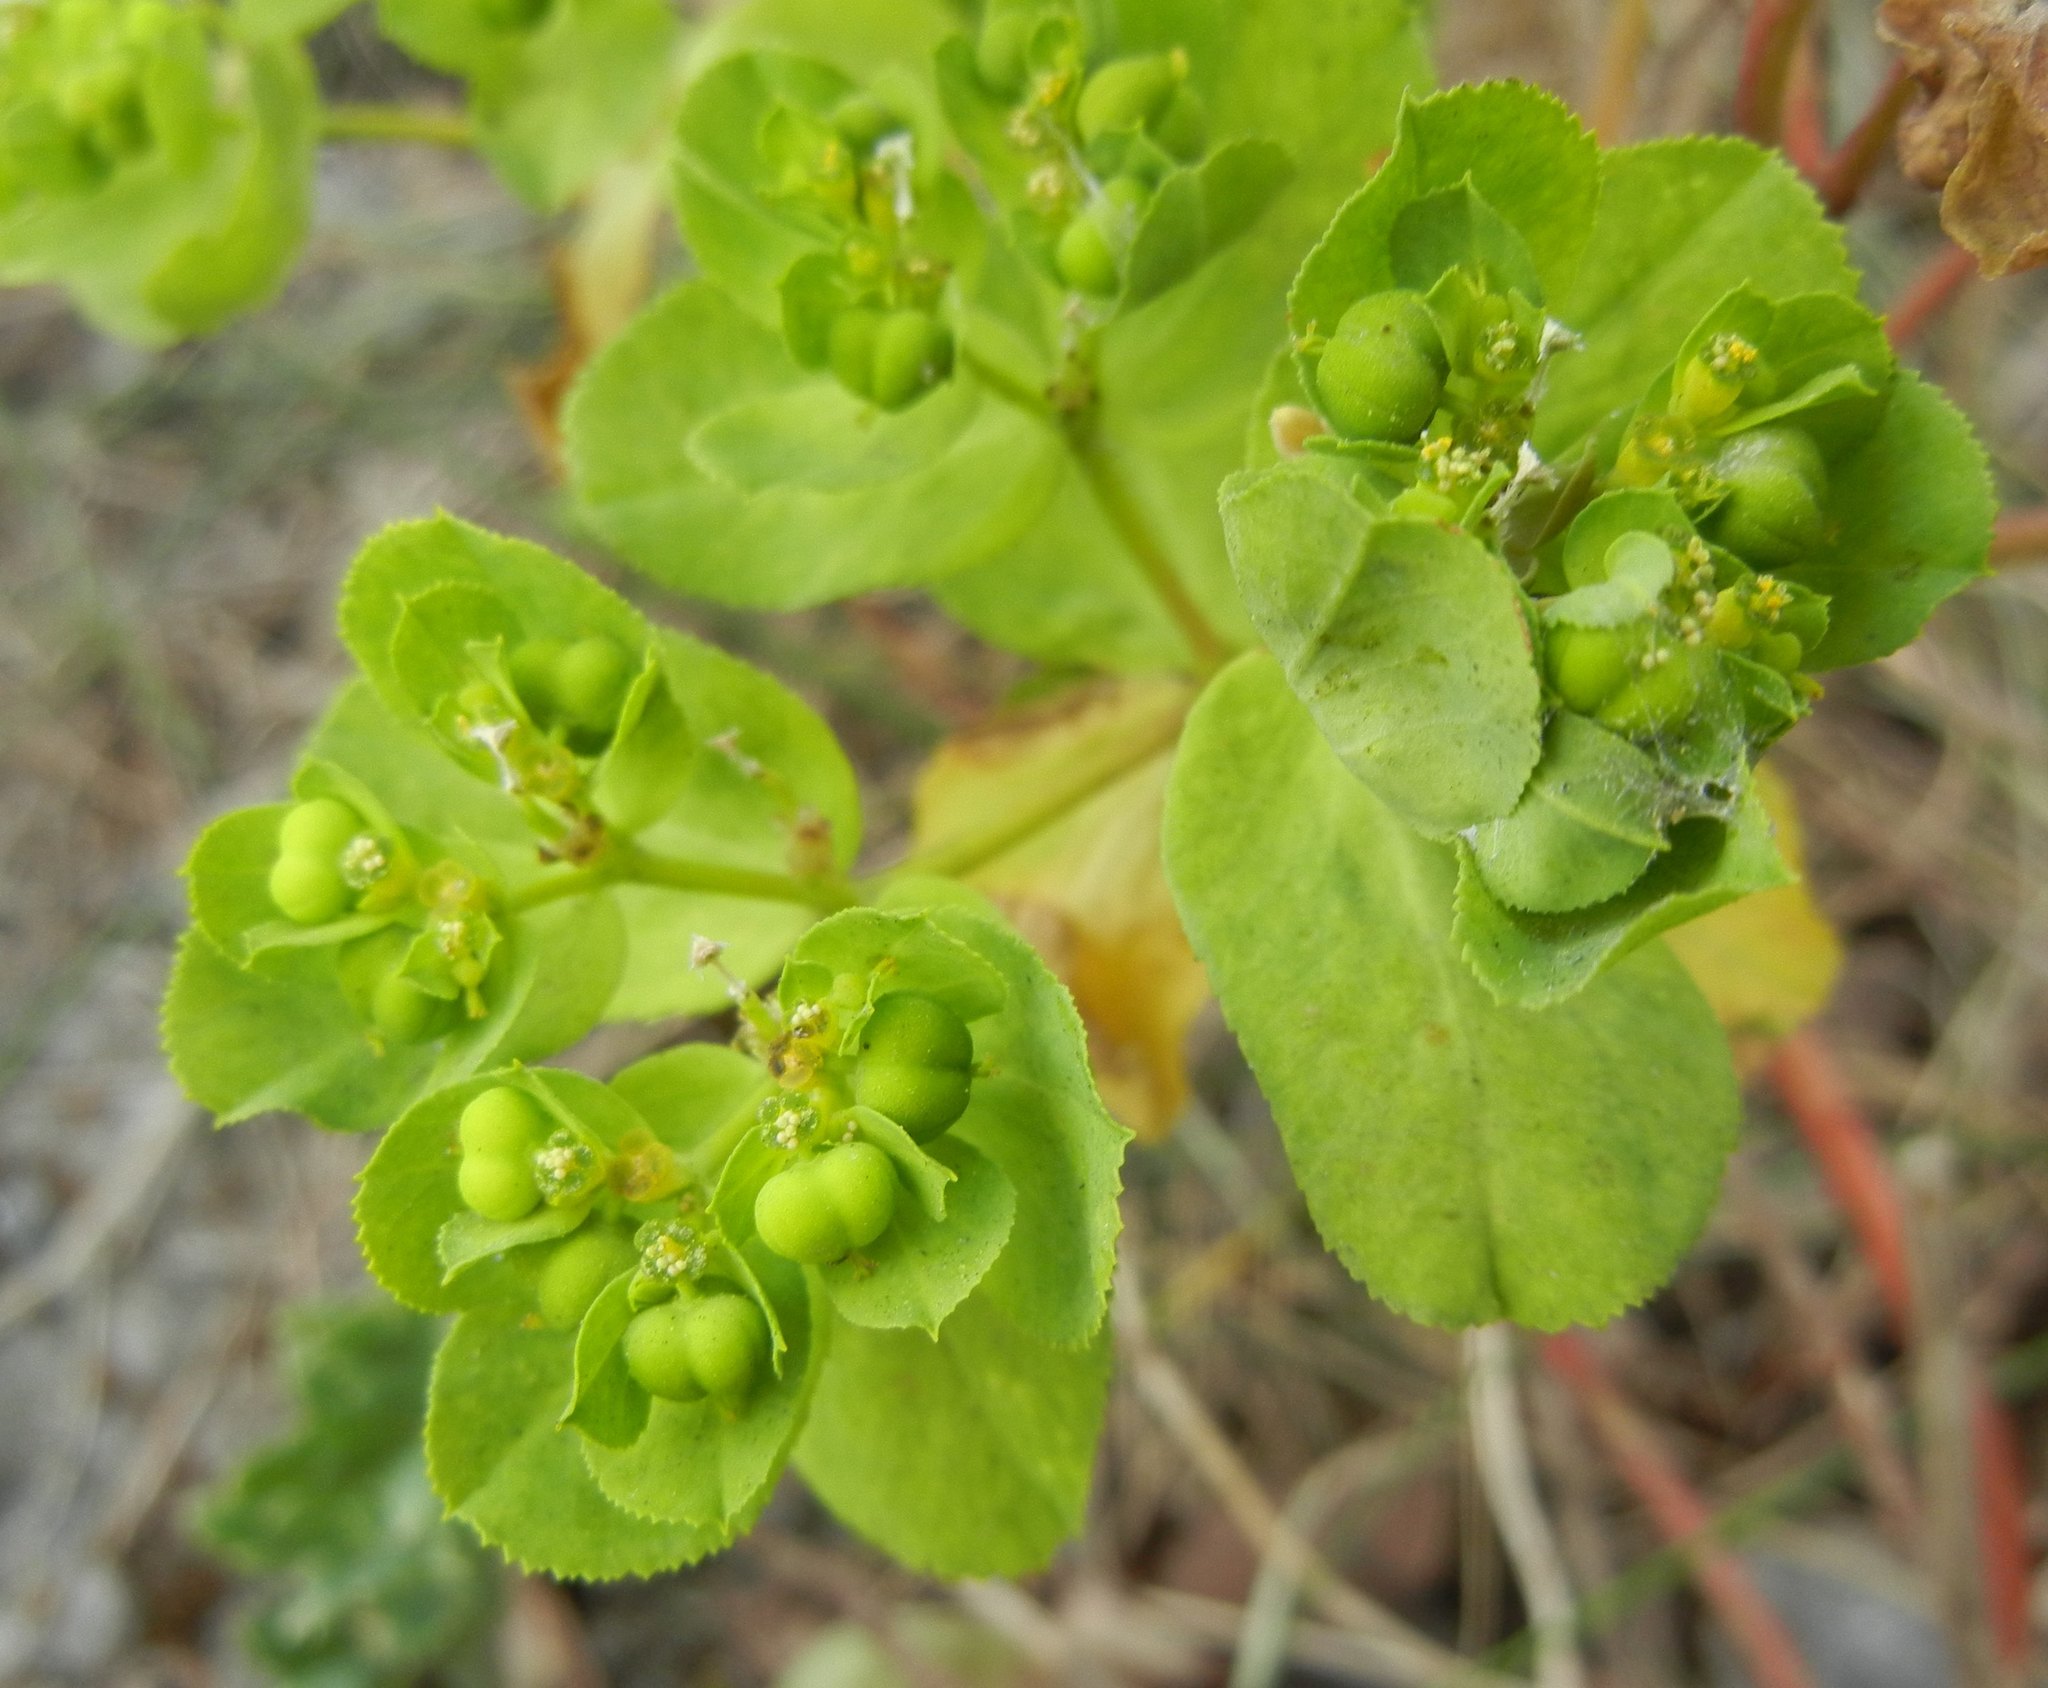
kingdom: Plantae
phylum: Tracheophyta
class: Magnoliopsida
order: Malpighiales
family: Euphorbiaceae
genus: Euphorbia
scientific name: Euphorbia helioscopia
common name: Sun spurge
